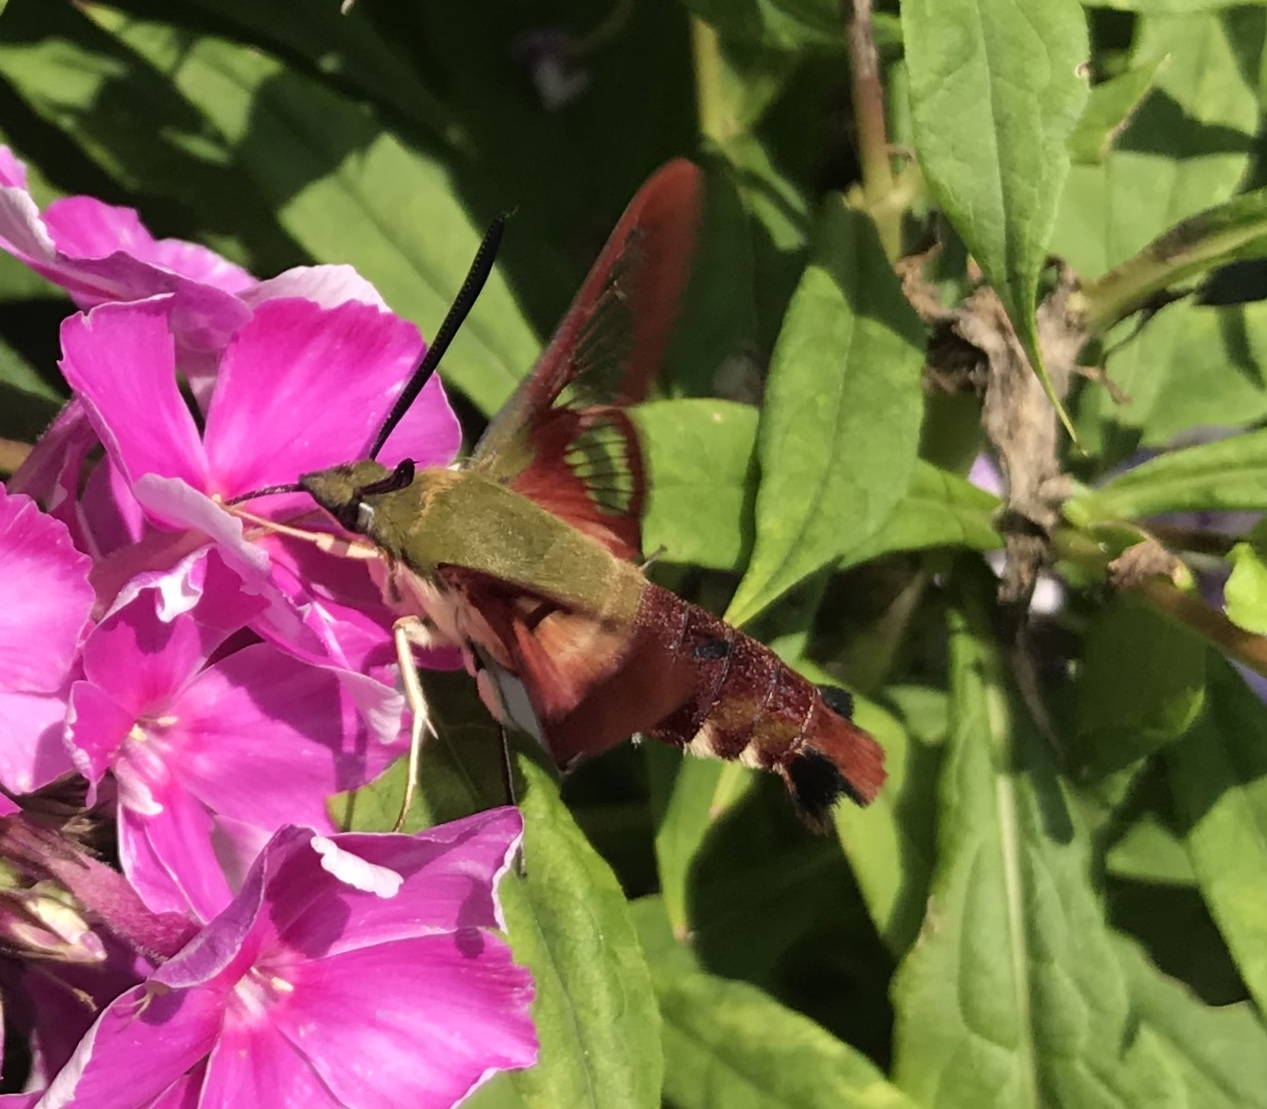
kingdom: Animalia
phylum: Arthropoda
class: Insecta
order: Lepidoptera
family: Sphingidae
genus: Hemaris
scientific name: Hemaris thysbe
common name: Common clear-wing
